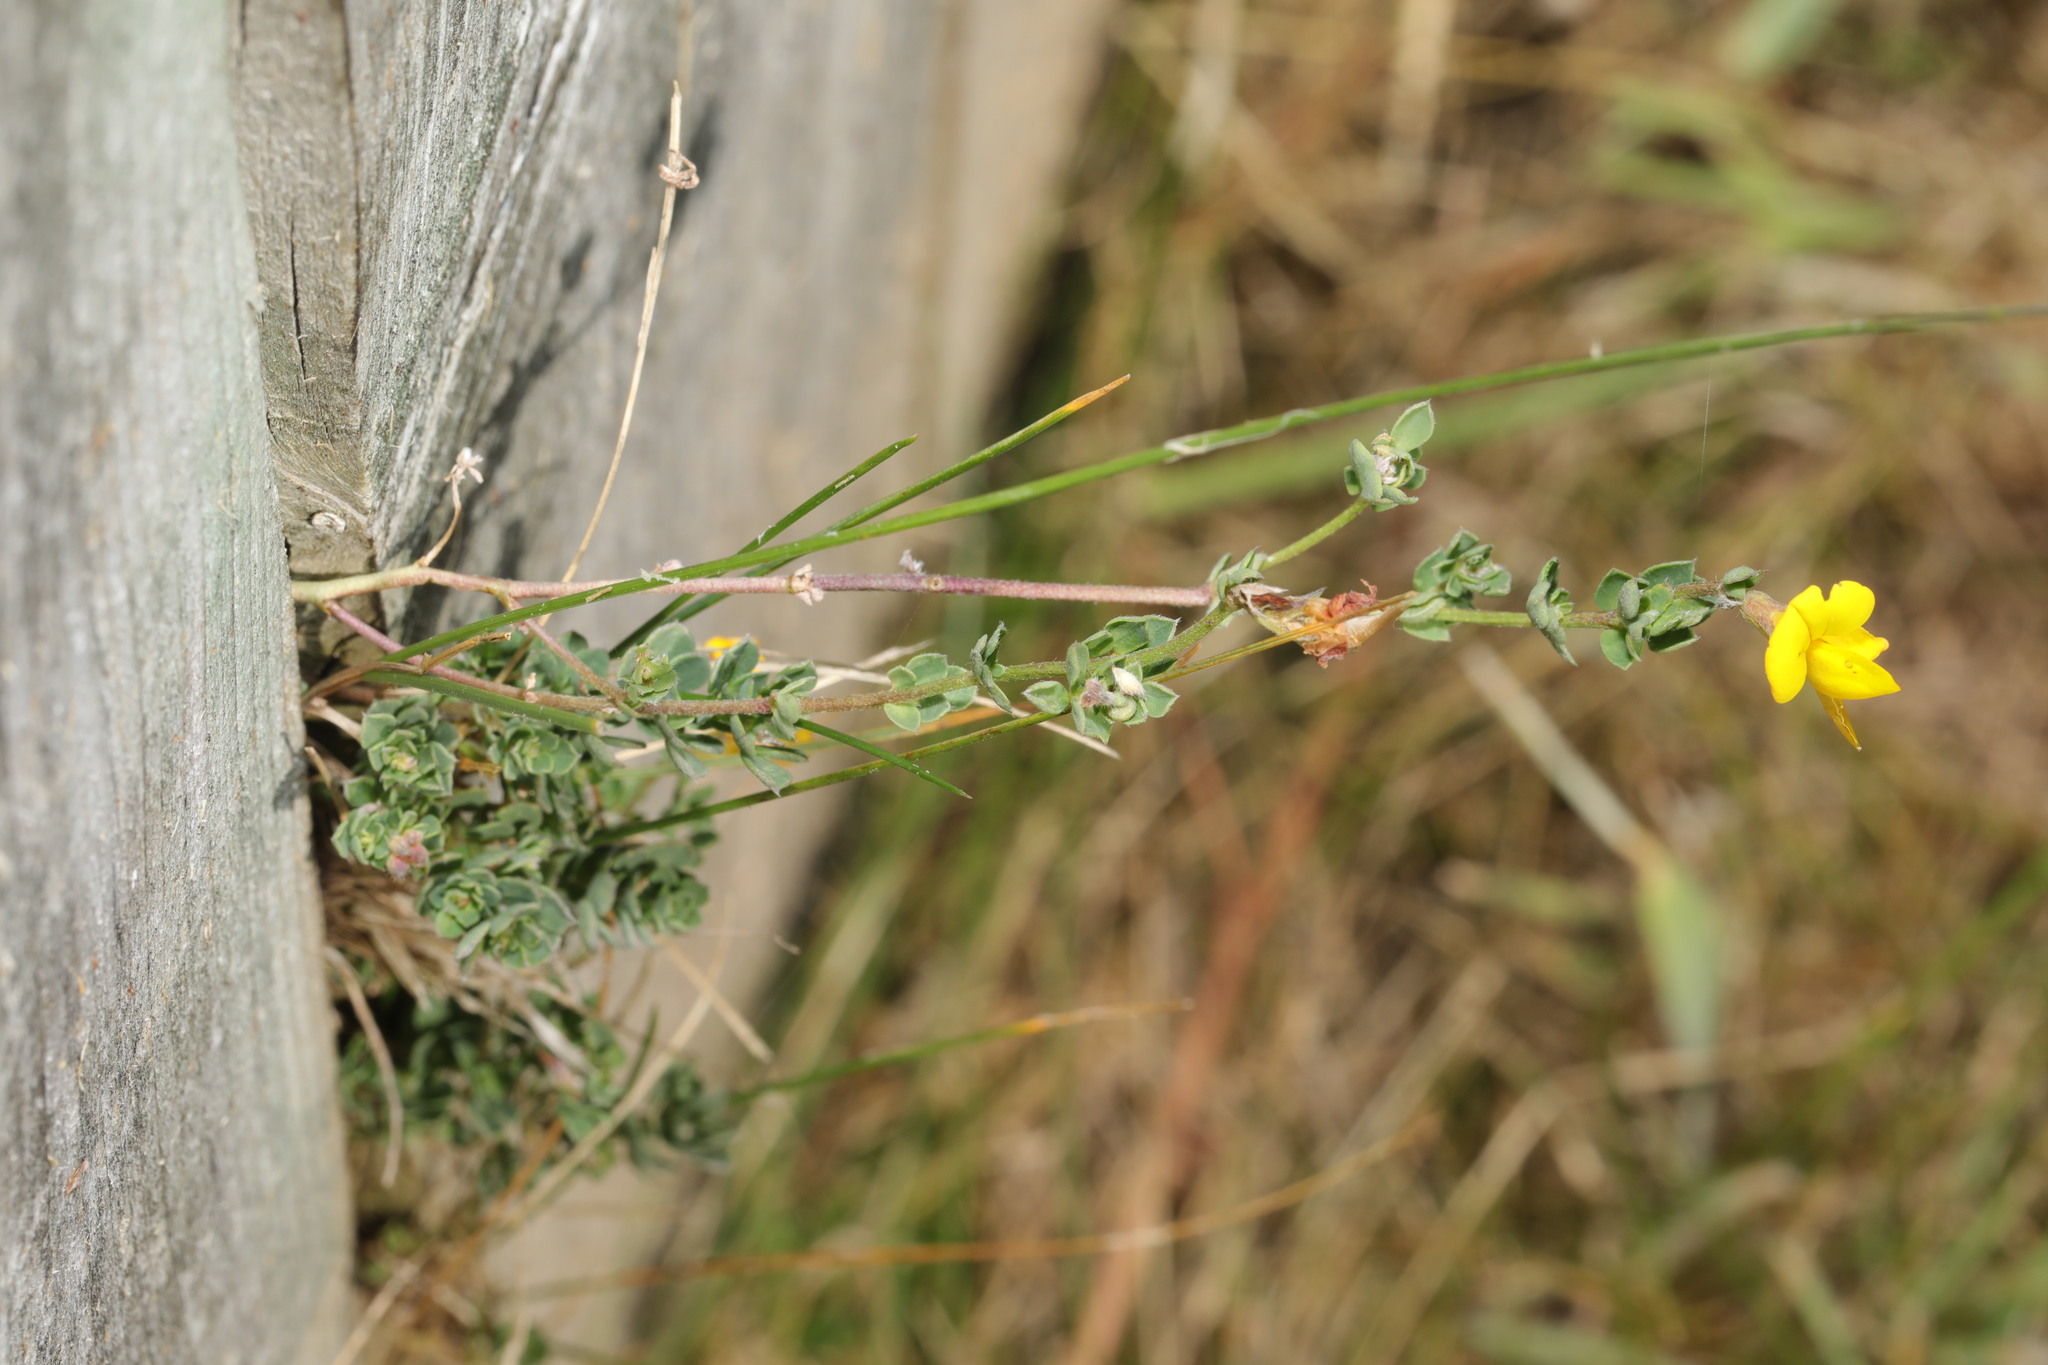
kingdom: Plantae
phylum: Tracheophyta
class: Magnoliopsida
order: Fabales
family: Fabaceae
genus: Lotus
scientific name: Lotus corniculatus
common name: Common bird's-foot-trefoil
